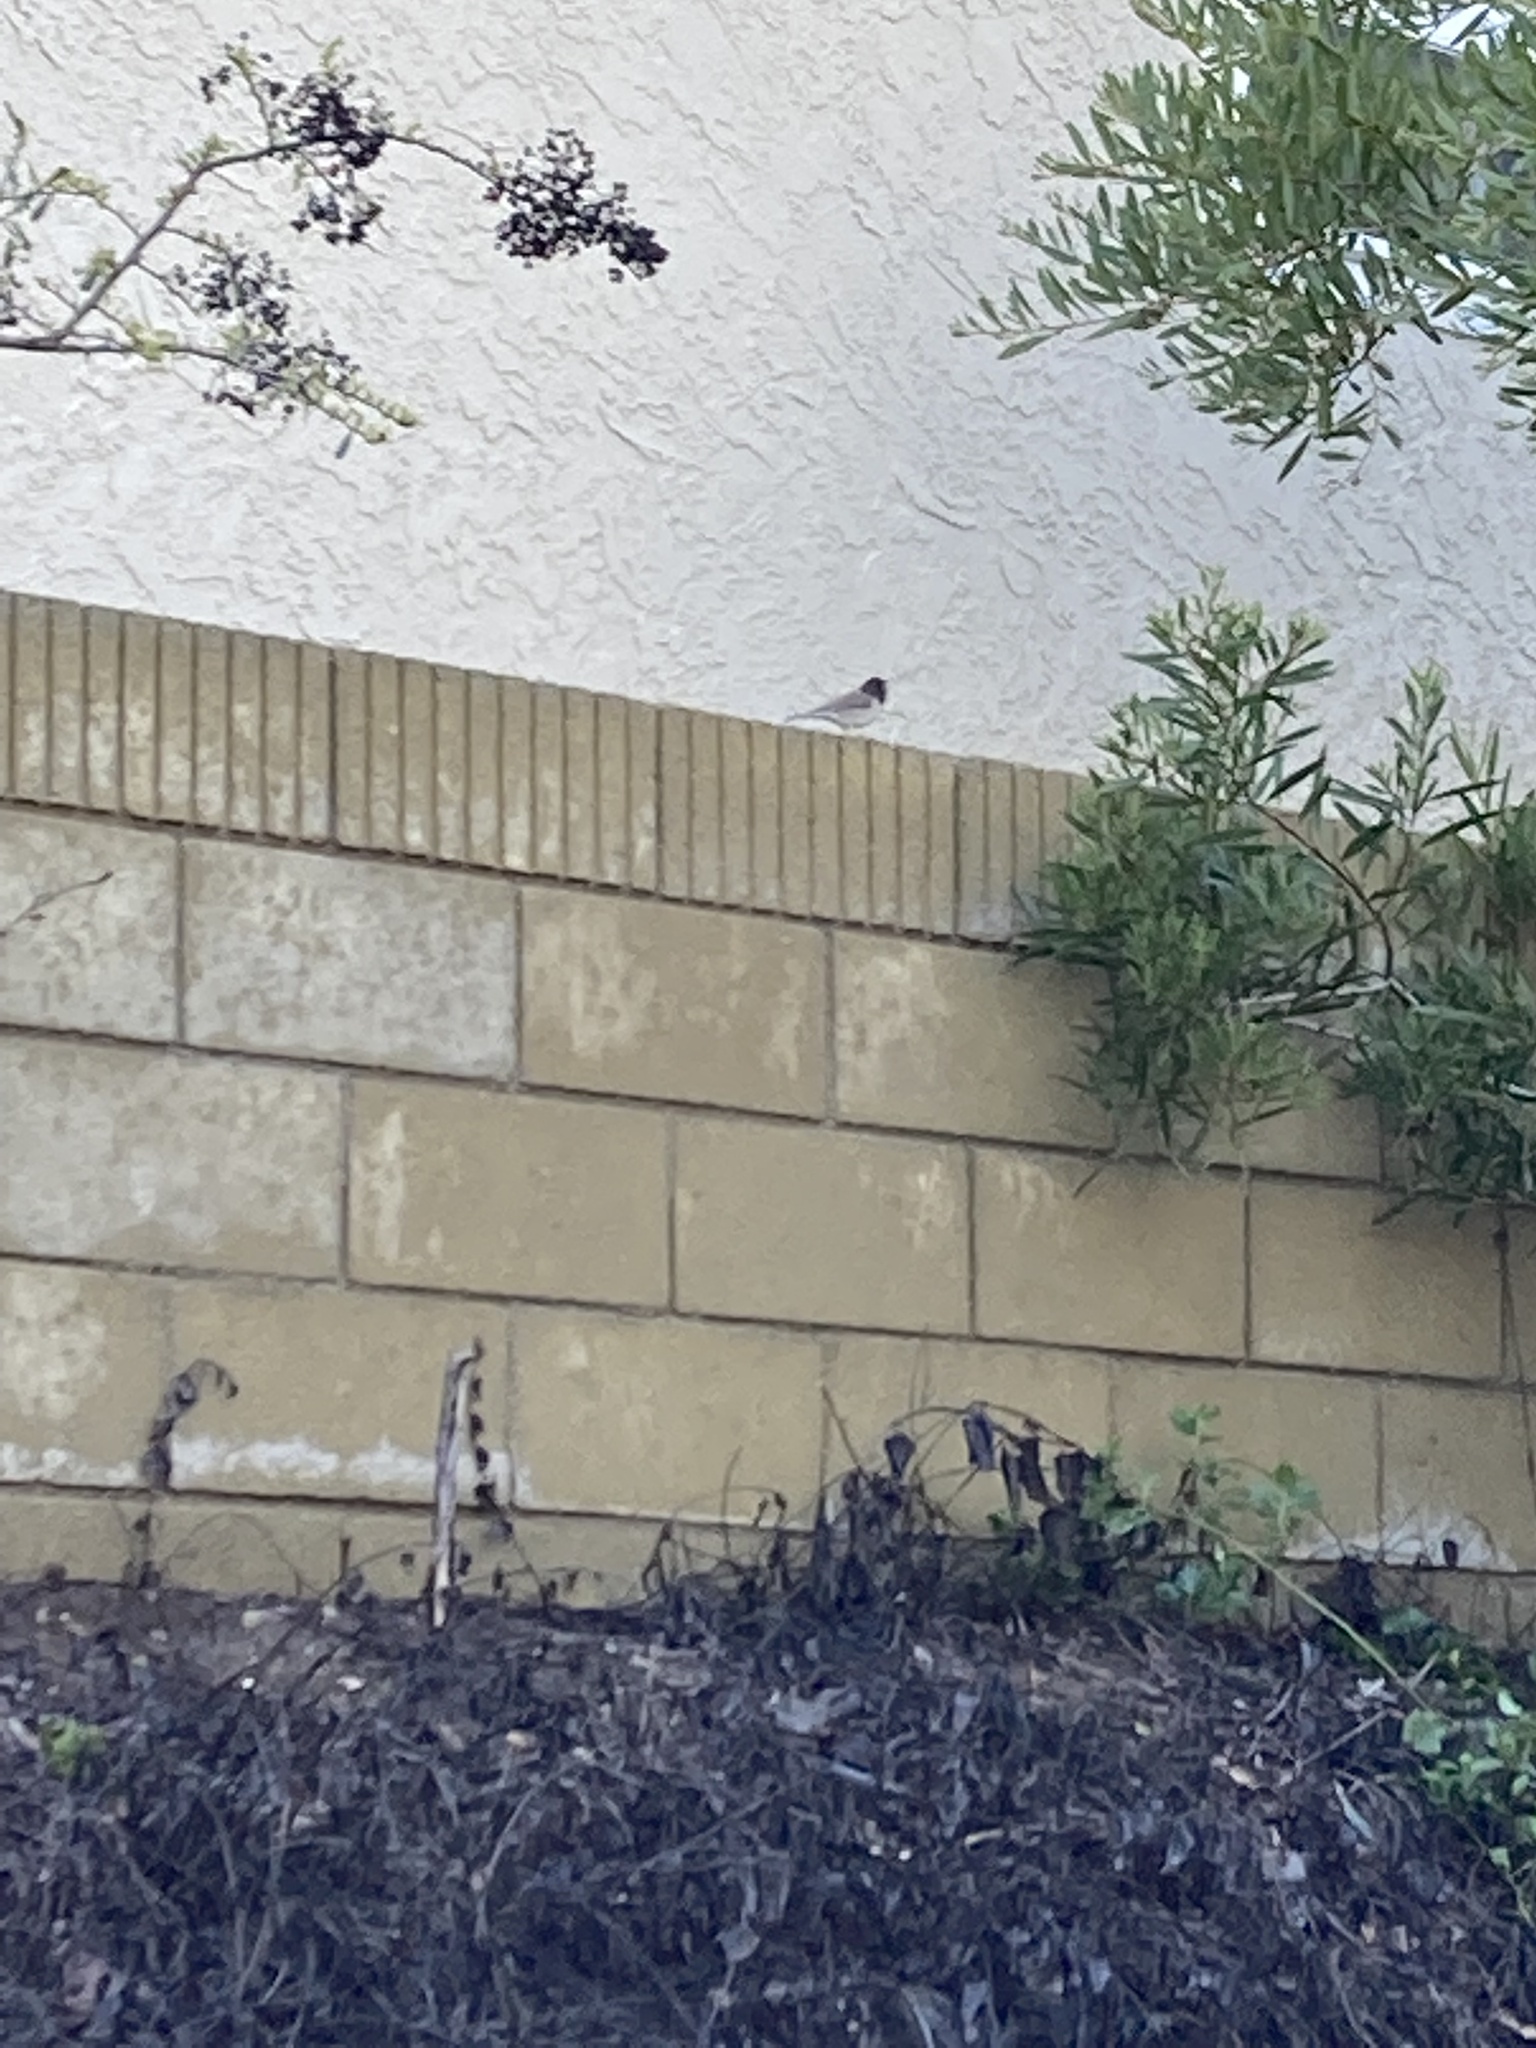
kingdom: Animalia
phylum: Chordata
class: Aves
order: Passeriformes
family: Passerellidae
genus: Junco
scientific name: Junco hyemalis
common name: Dark-eyed junco
